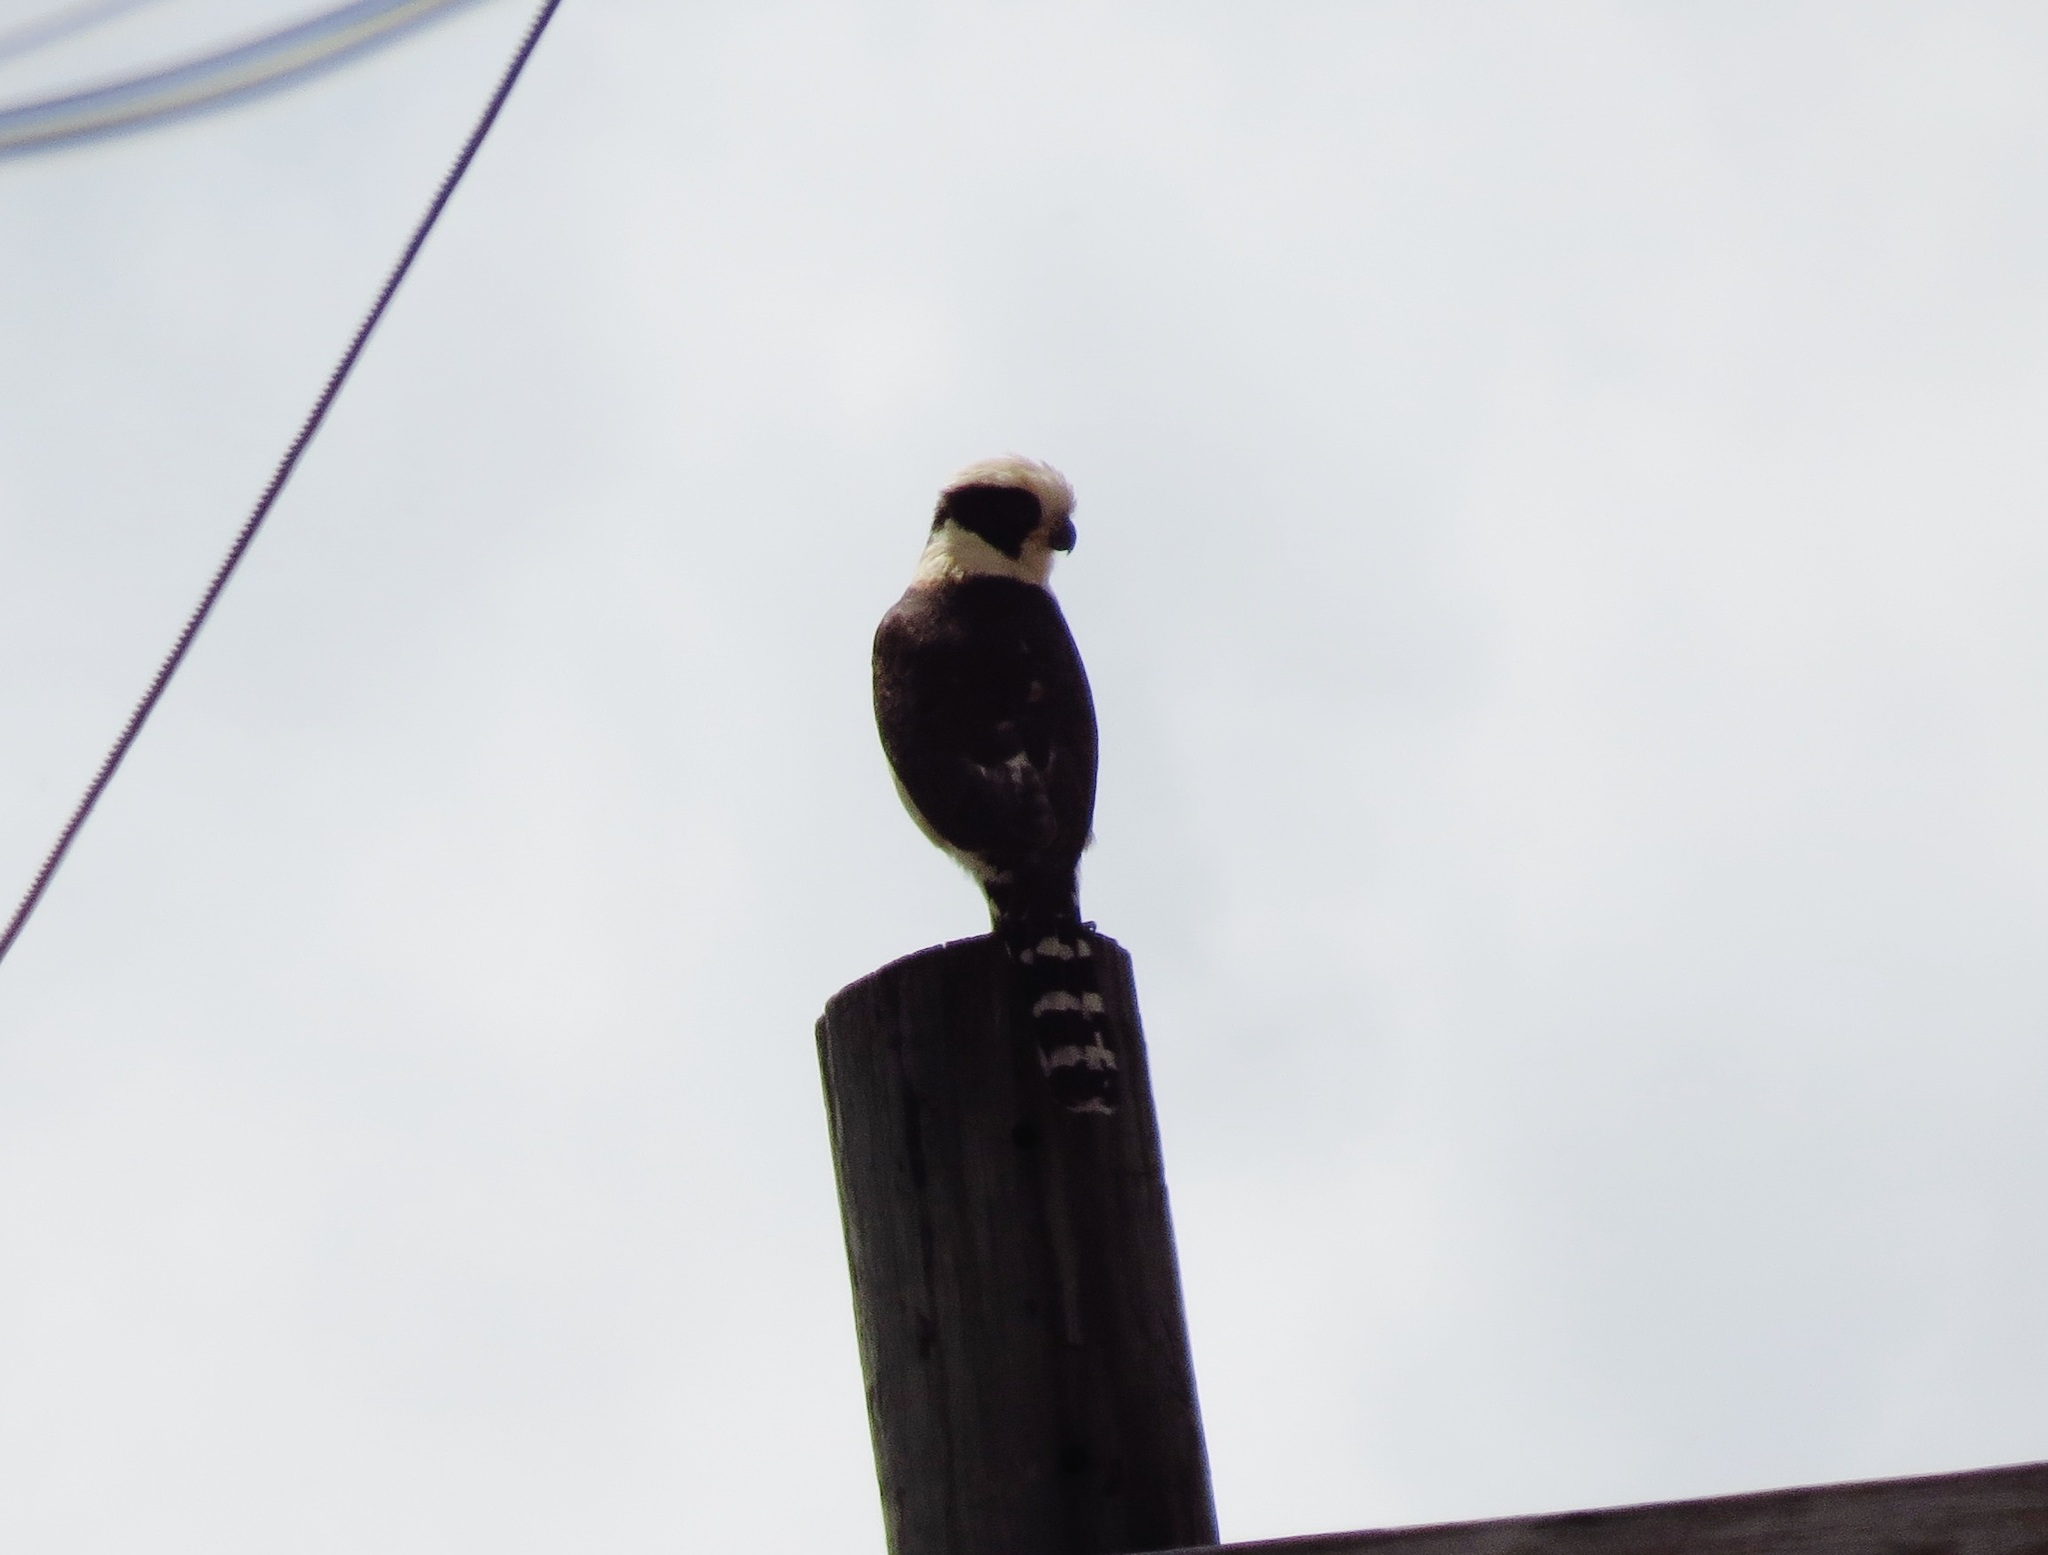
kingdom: Animalia
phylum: Chordata
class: Aves
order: Falconiformes
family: Falconidae
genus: Herpetotheres
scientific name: Herpetotheres cachinnans
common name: Laughing falcon
